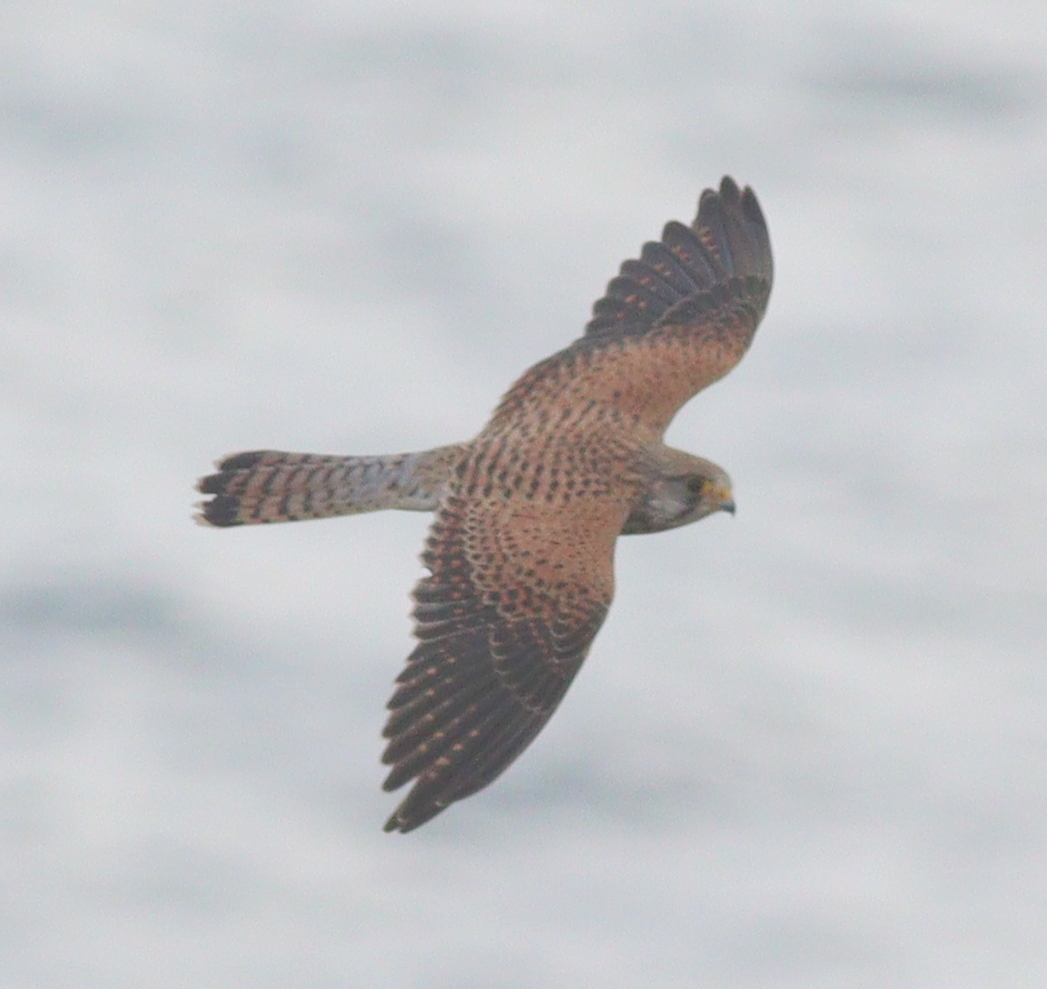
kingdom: Animalia
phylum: Chordata
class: Aves
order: Falconiformes
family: Falconidae
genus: Falco
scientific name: Falco tinnunculus
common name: Common kestrel
